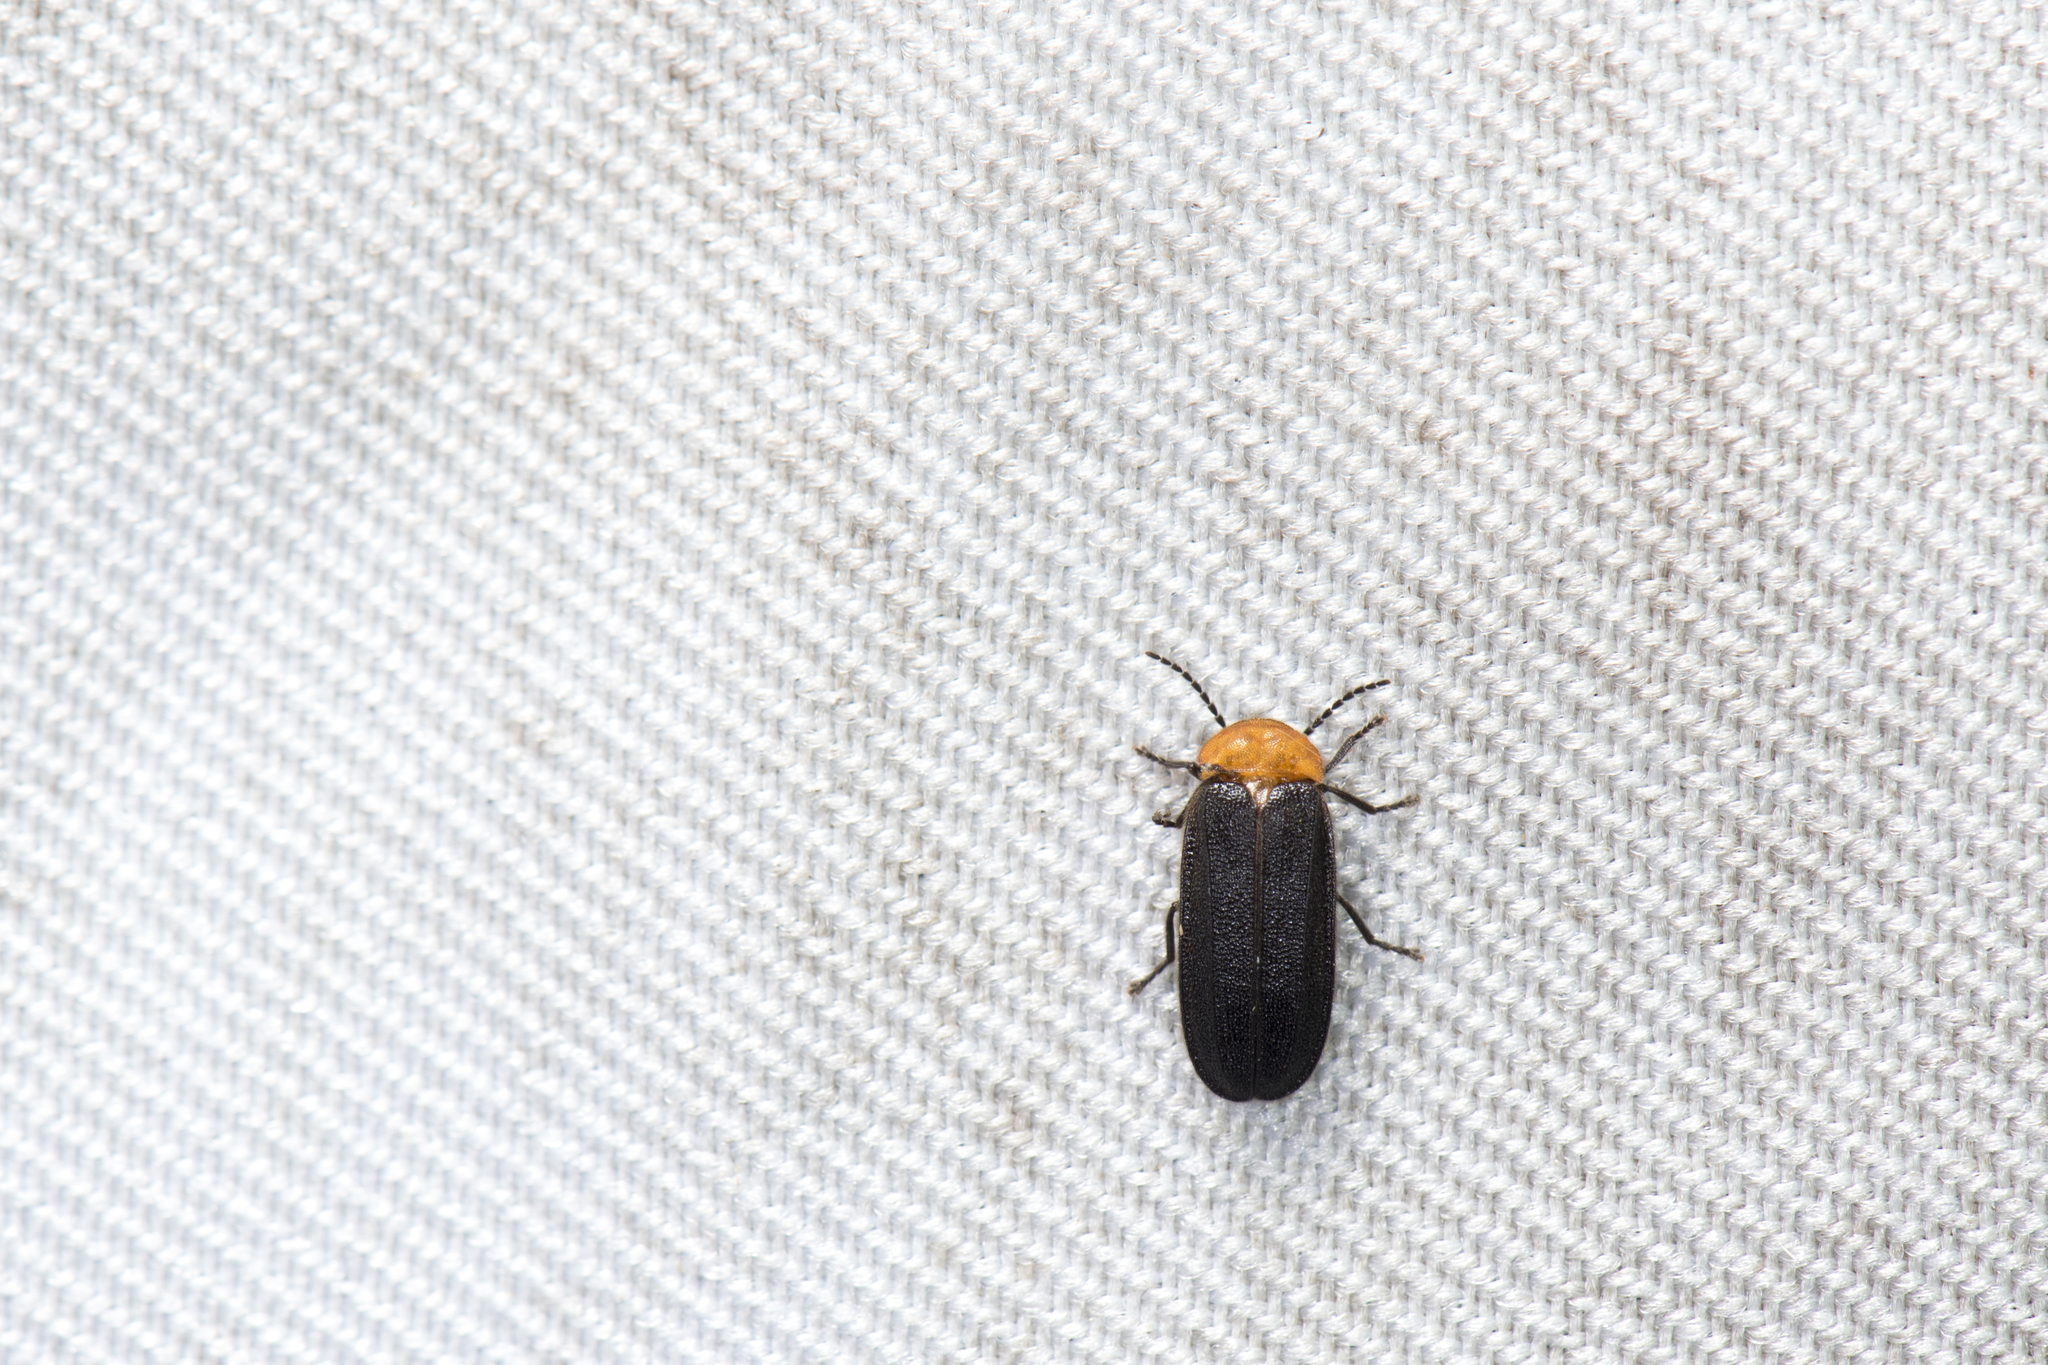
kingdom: Animalia
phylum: Arthropoda
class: Insecta
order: Coleoptera
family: Lampyridae
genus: Curtos
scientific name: Curtos mundulus
